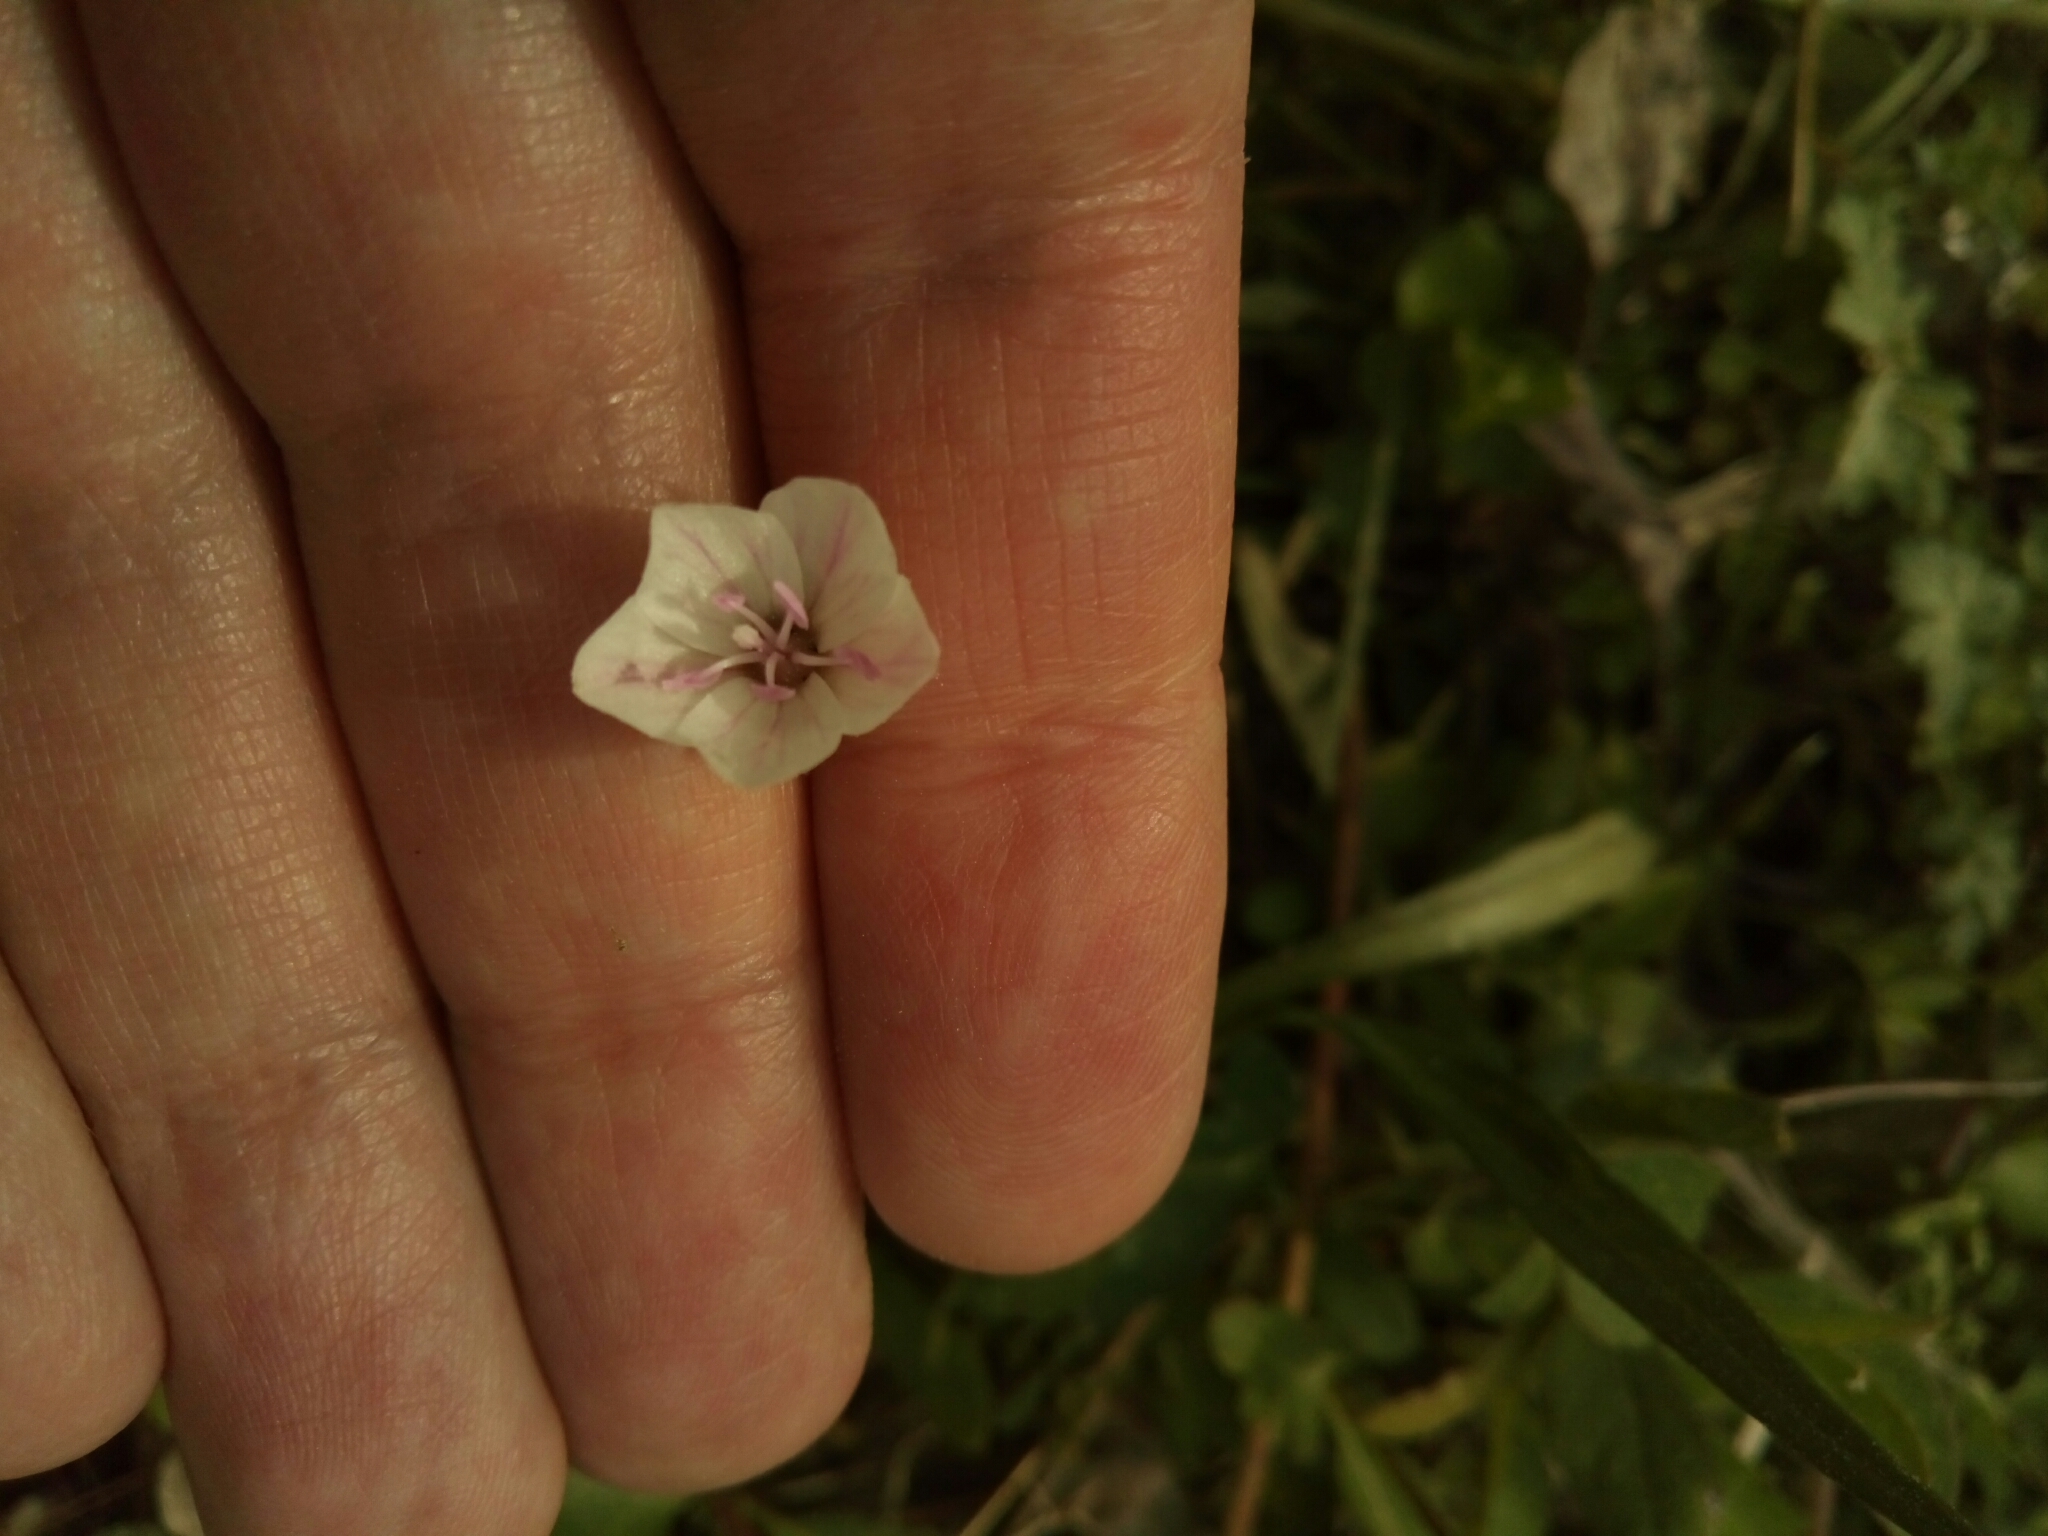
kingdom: Plantae
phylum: Tracheophyta
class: Magnoliopsida
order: Caryophyllales
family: Montiaceae
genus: Claytonia
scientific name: Claytonia virginica
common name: Virginia springbeauty
